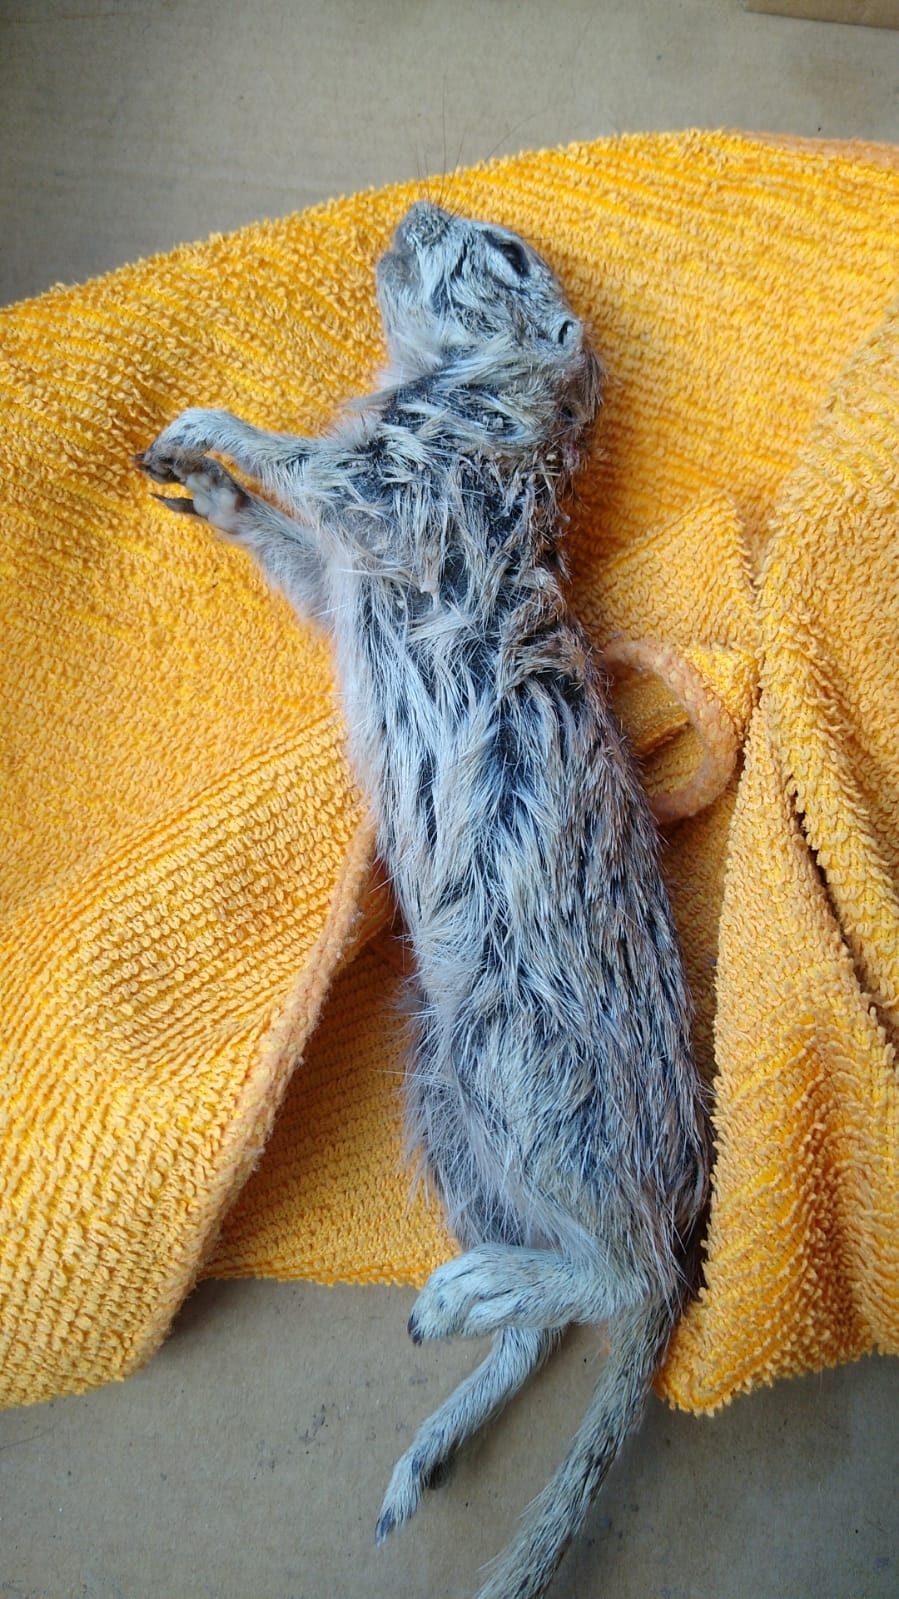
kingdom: Animalia
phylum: Chordata
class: Mammalia
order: Rodentia
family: Sciuridae
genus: Xerospermophilus
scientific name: Xerospermophilus tereticaudus
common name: Round-tailed ground squirrel
